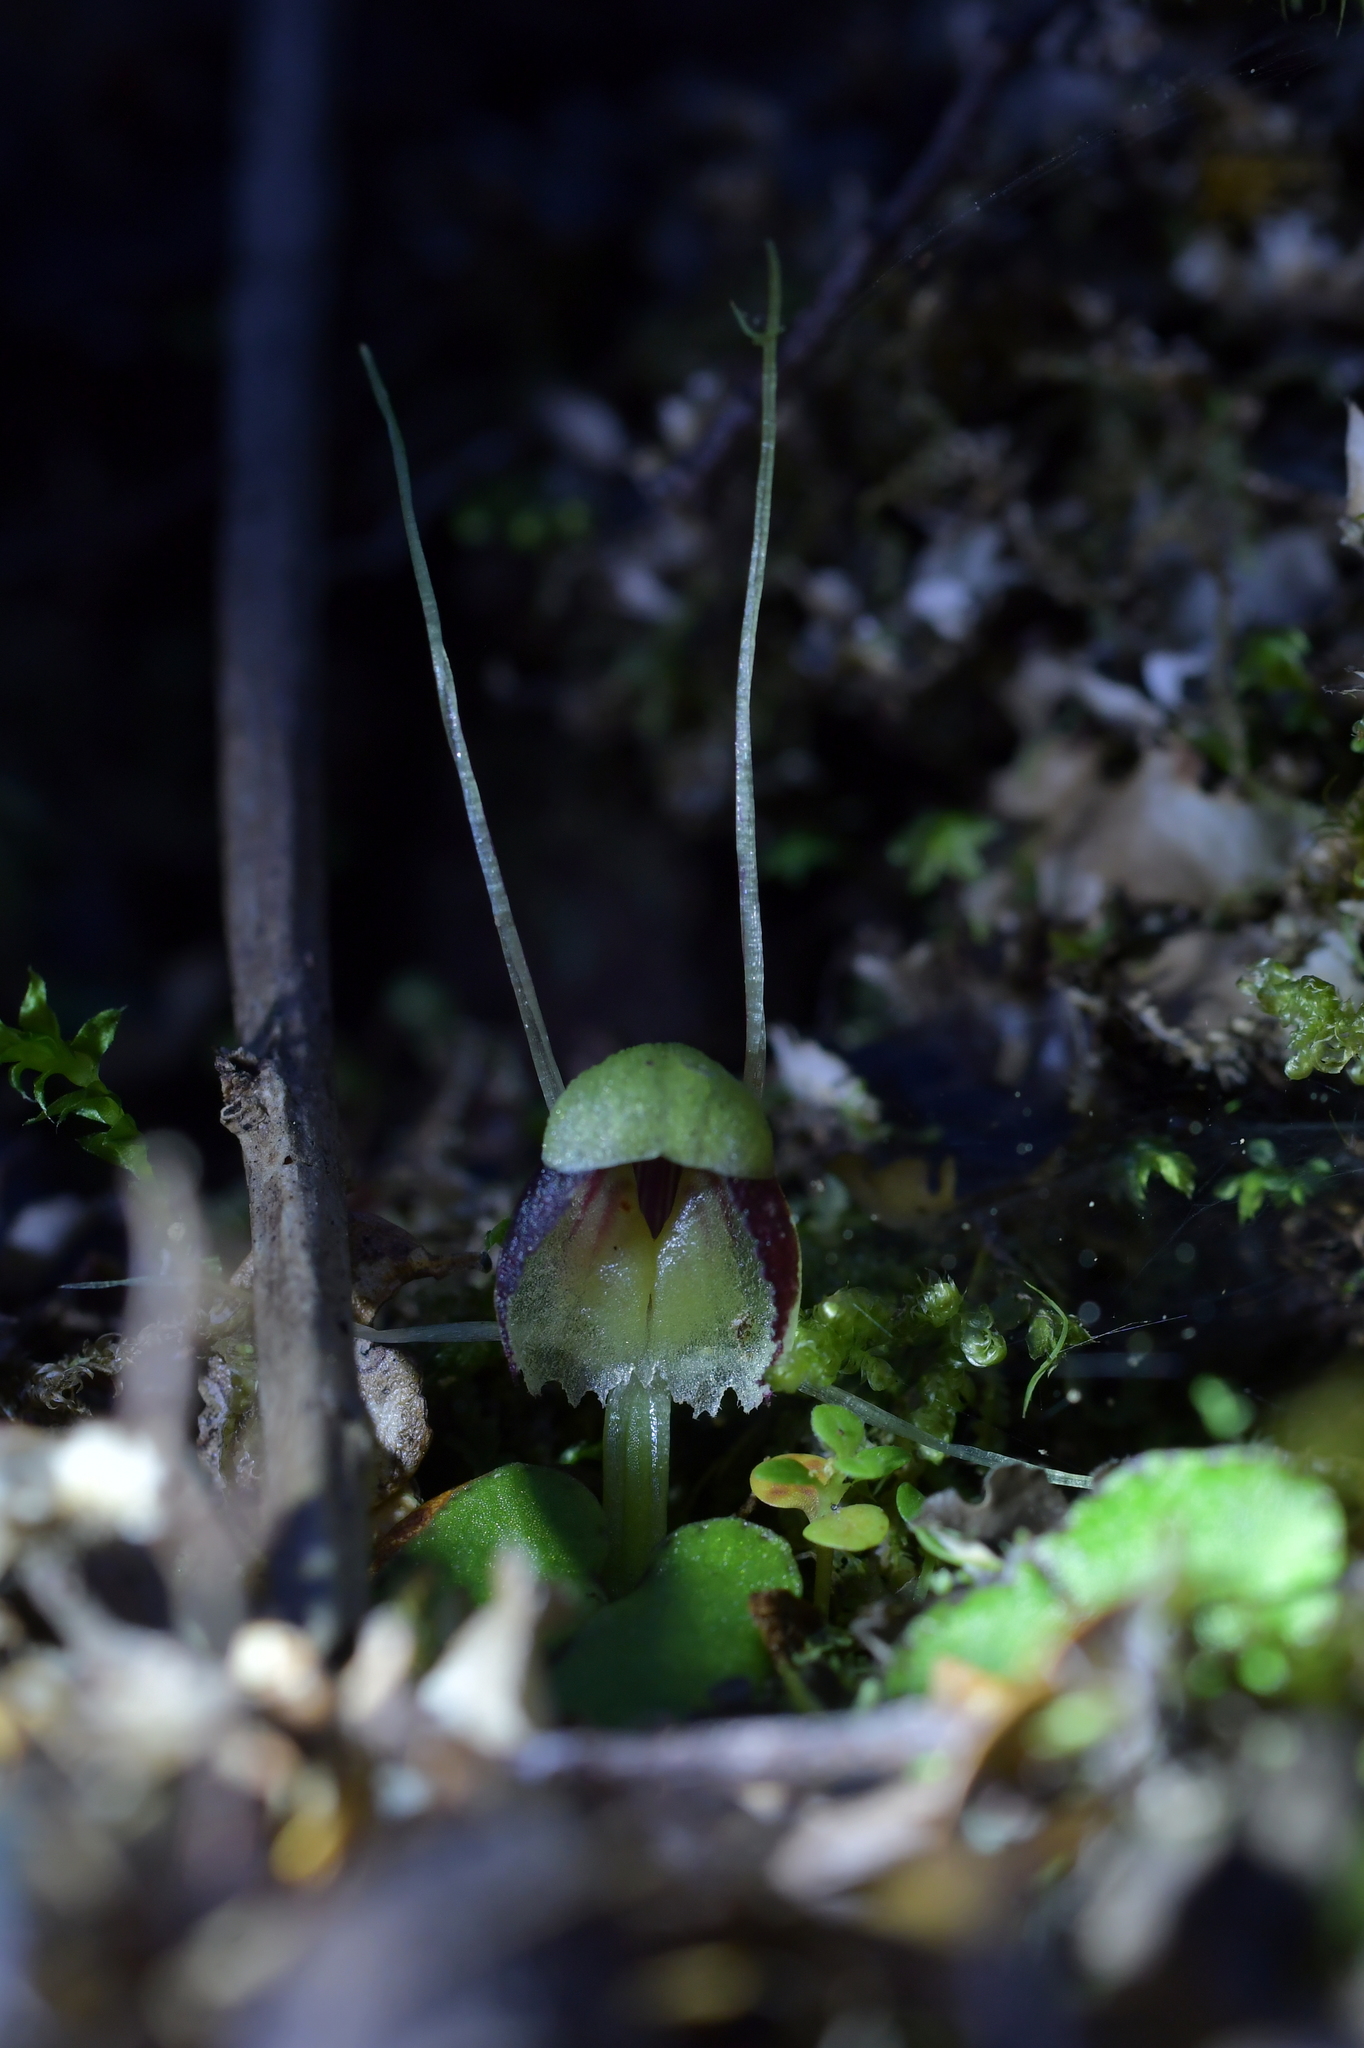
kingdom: Plantae
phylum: Tracheophyta
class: Liliopsida
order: Asparagales
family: Orchidaceae
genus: Corybas
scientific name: Corybas trilobus
